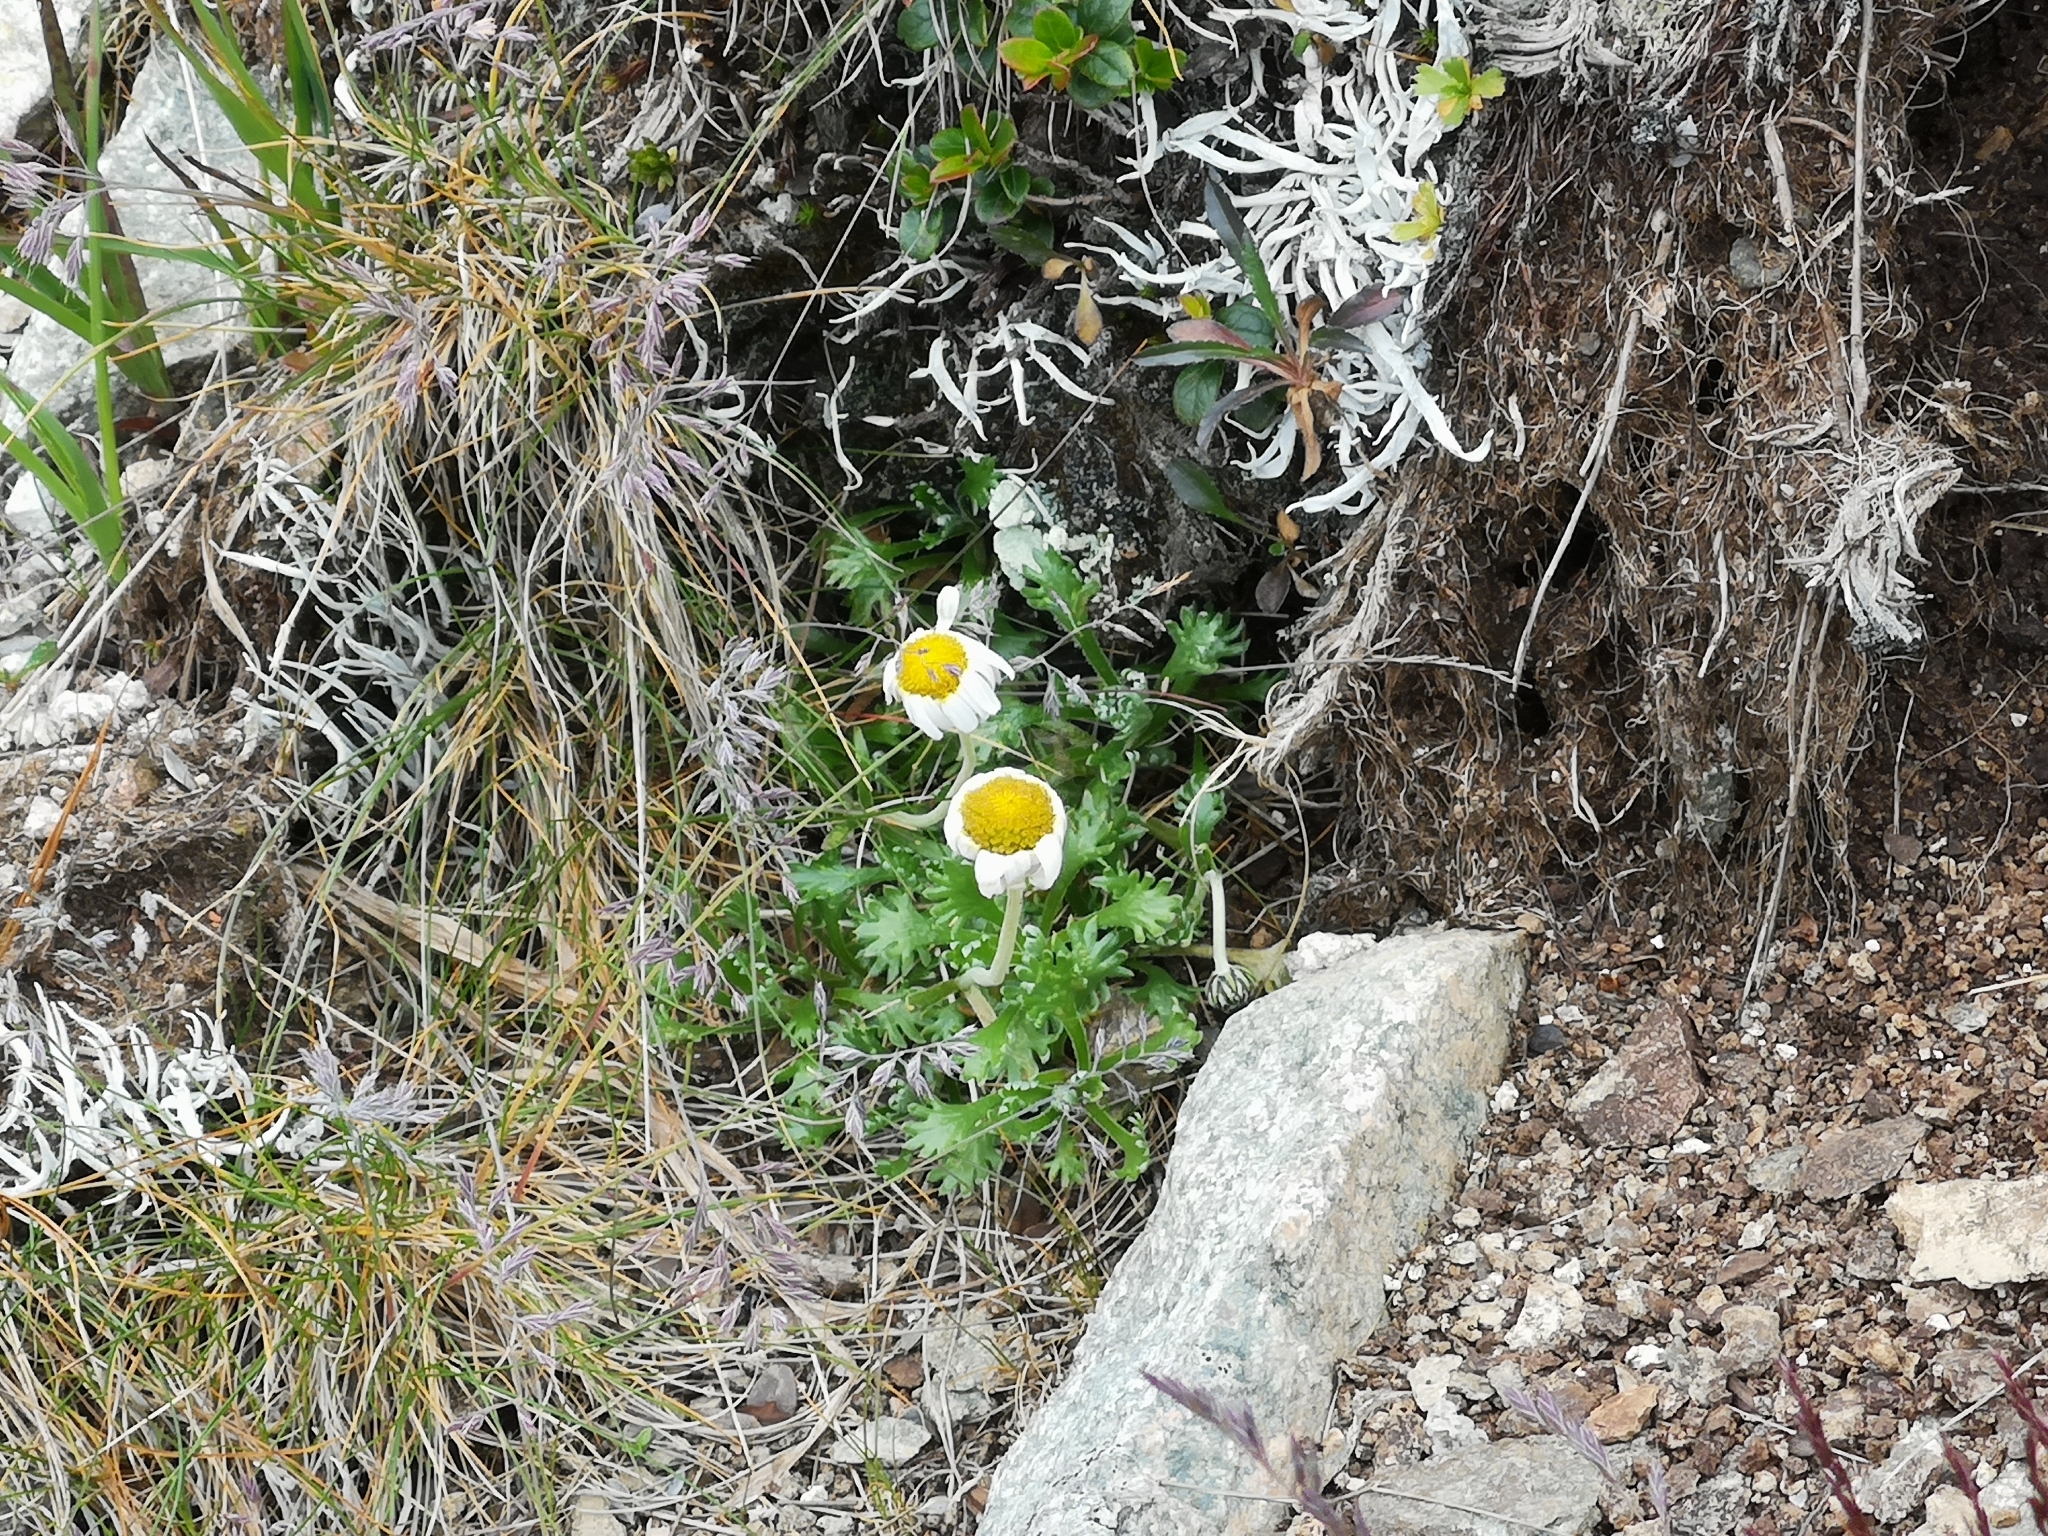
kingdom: Plantae
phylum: Tracheophyta
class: Magnoliopsida
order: Asterales
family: Asteraceae
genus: Leucanthemopsis
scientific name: Leucanthemopsis alpina
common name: Alpine moon daisy
